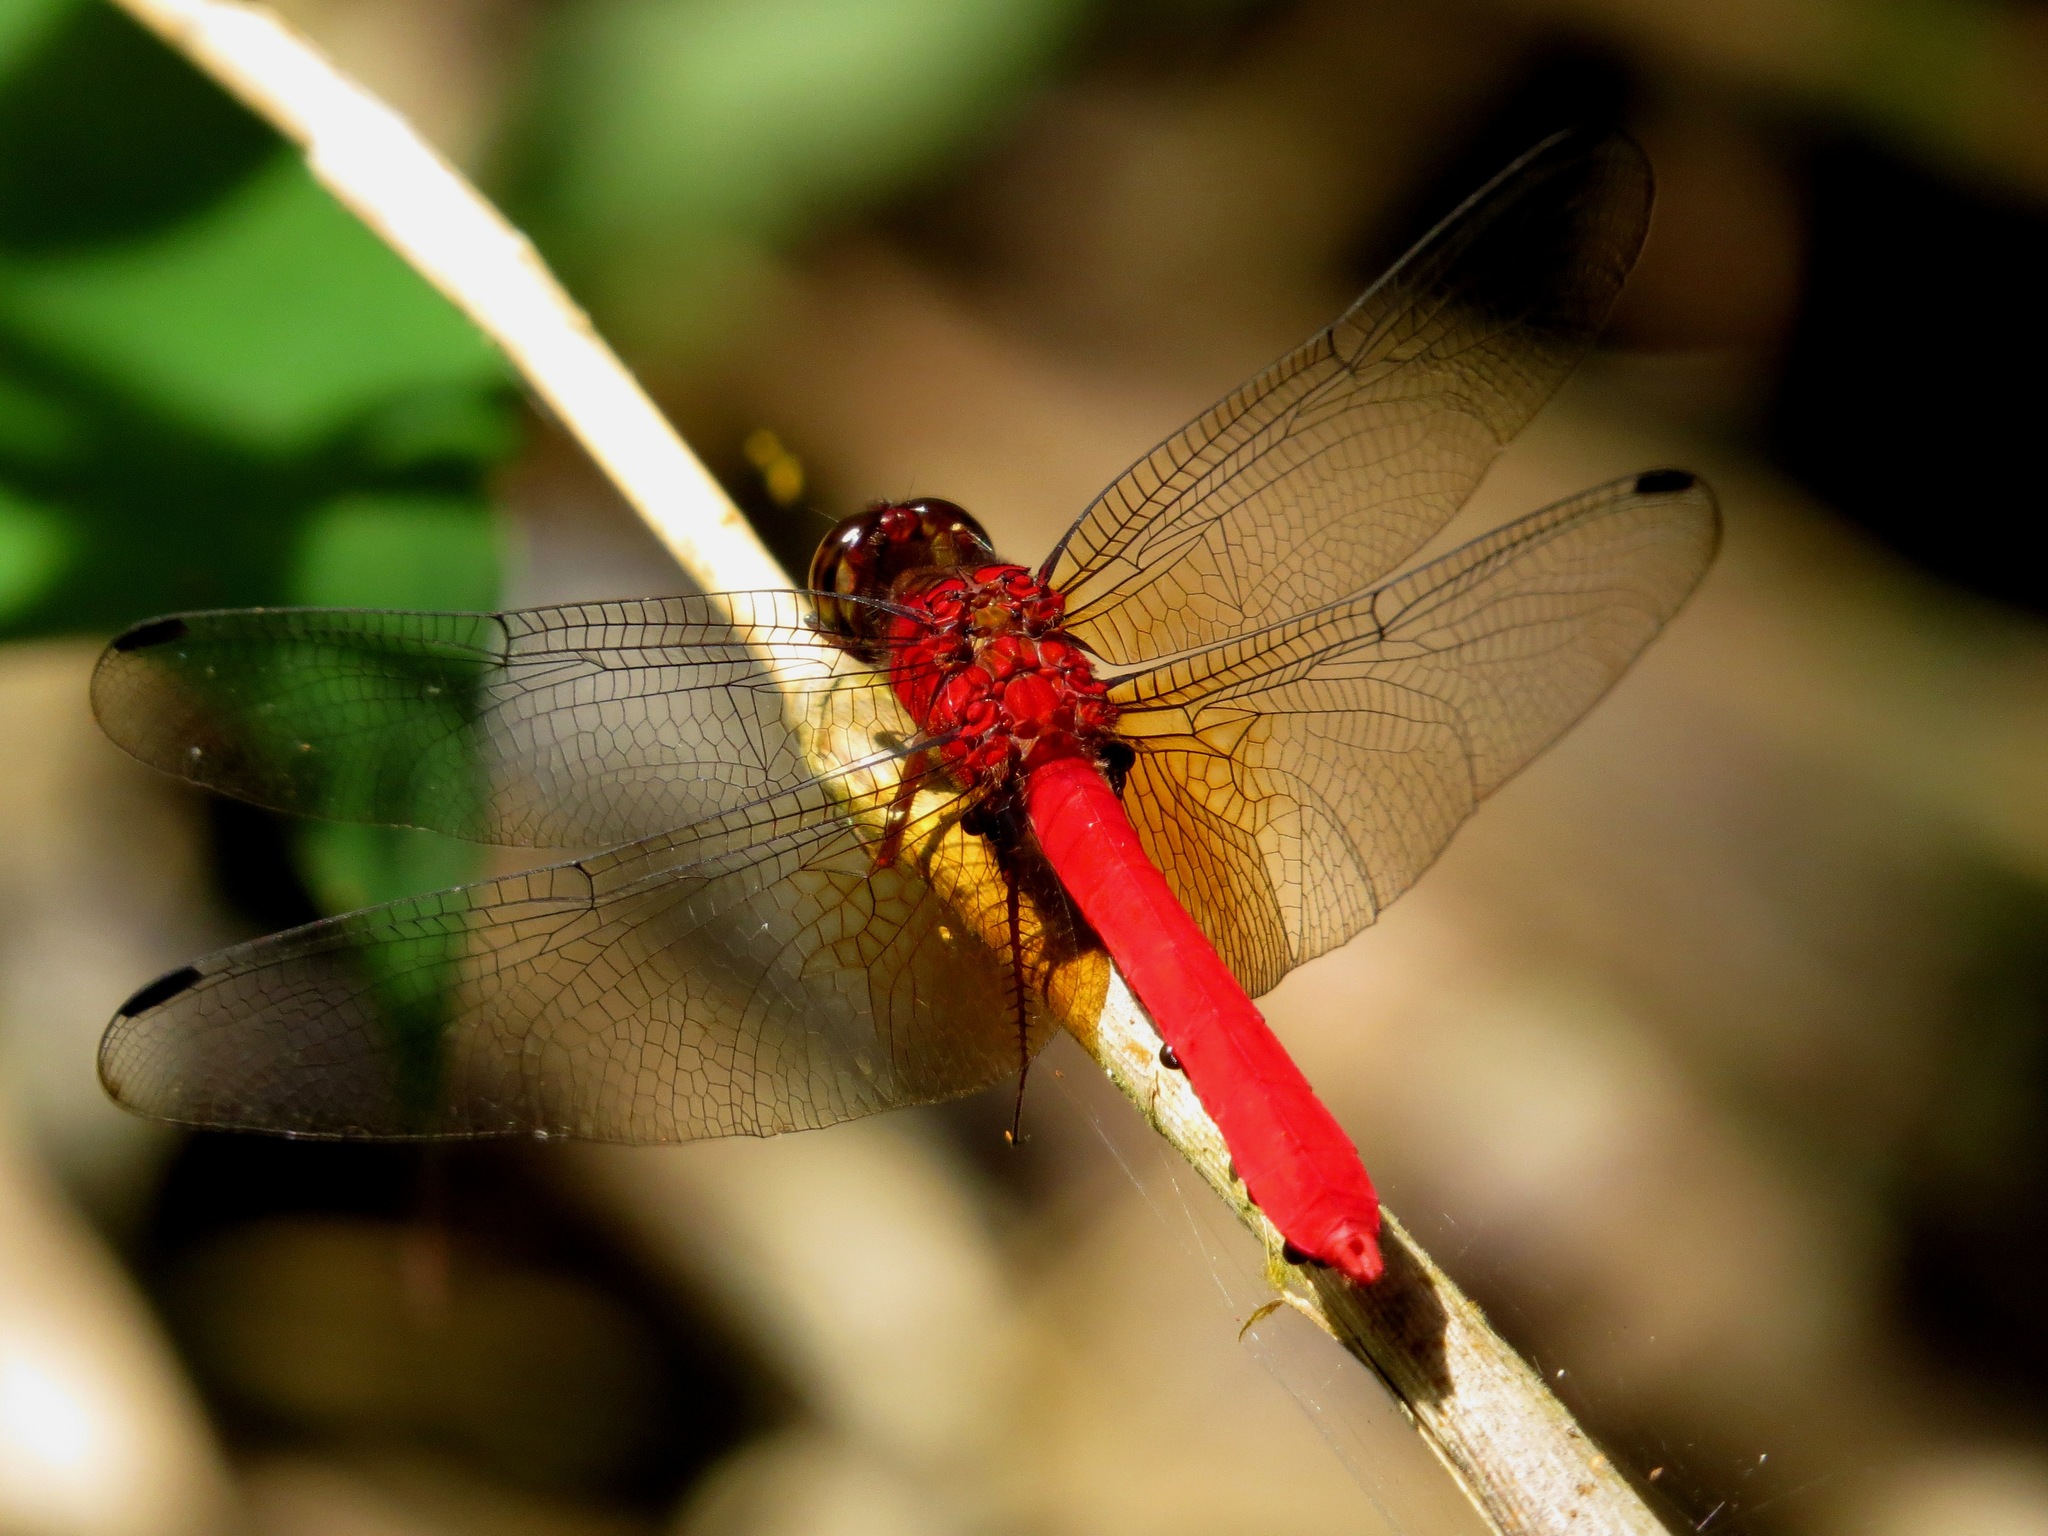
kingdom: Animalia
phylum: Arthropoda
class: Insecta
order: Odonata
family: Libellulidae
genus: Rhodopygia
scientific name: Rhodopygia cardinalis
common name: Cardinal redskimmer
